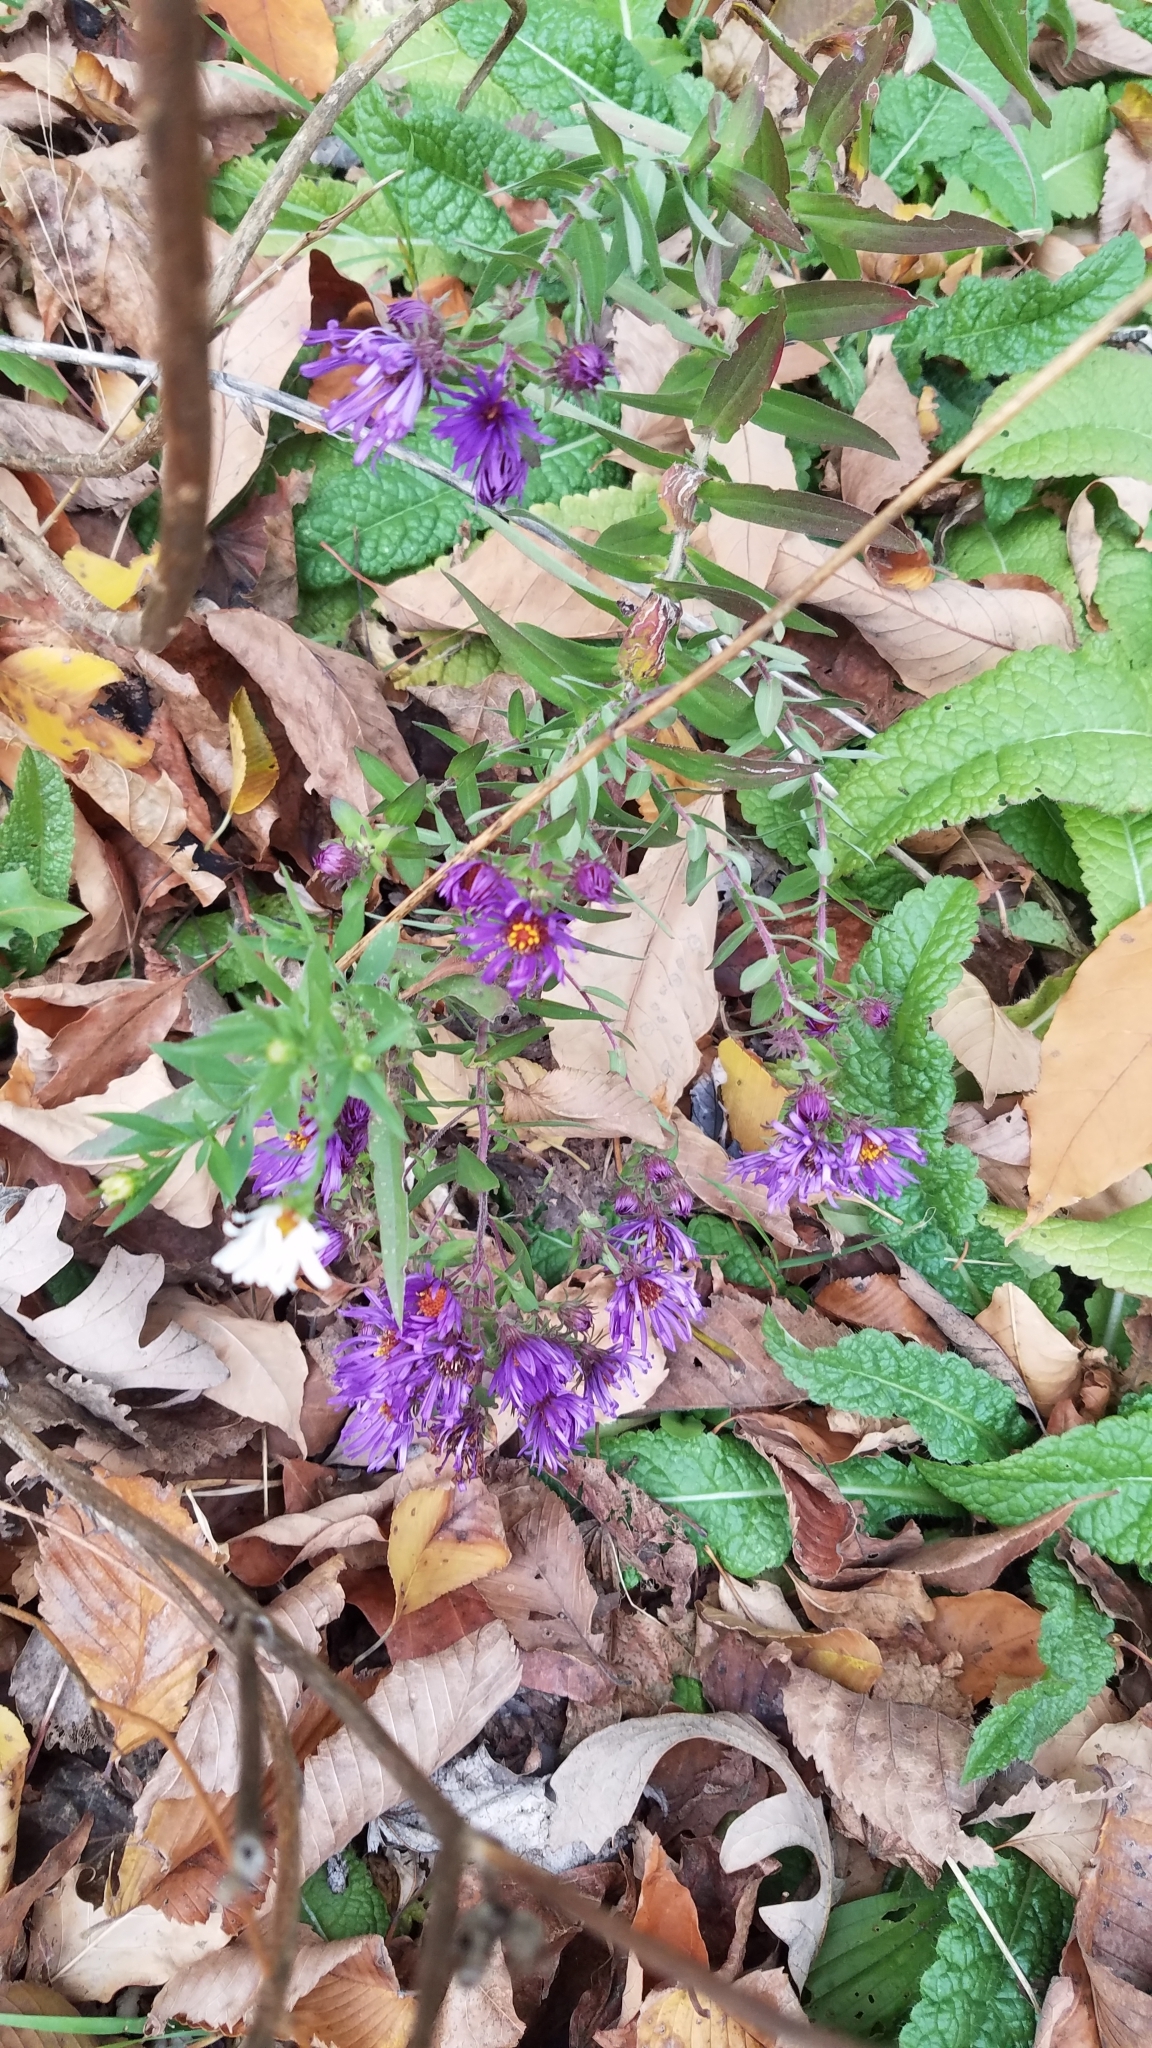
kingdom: Plantae
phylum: Tracheophyta
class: Magnoliopsida
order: Asterales
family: Asteraceae
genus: Symphyotrichum
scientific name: Symphyotrichum novae-angliae
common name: Michaelmas daisy
